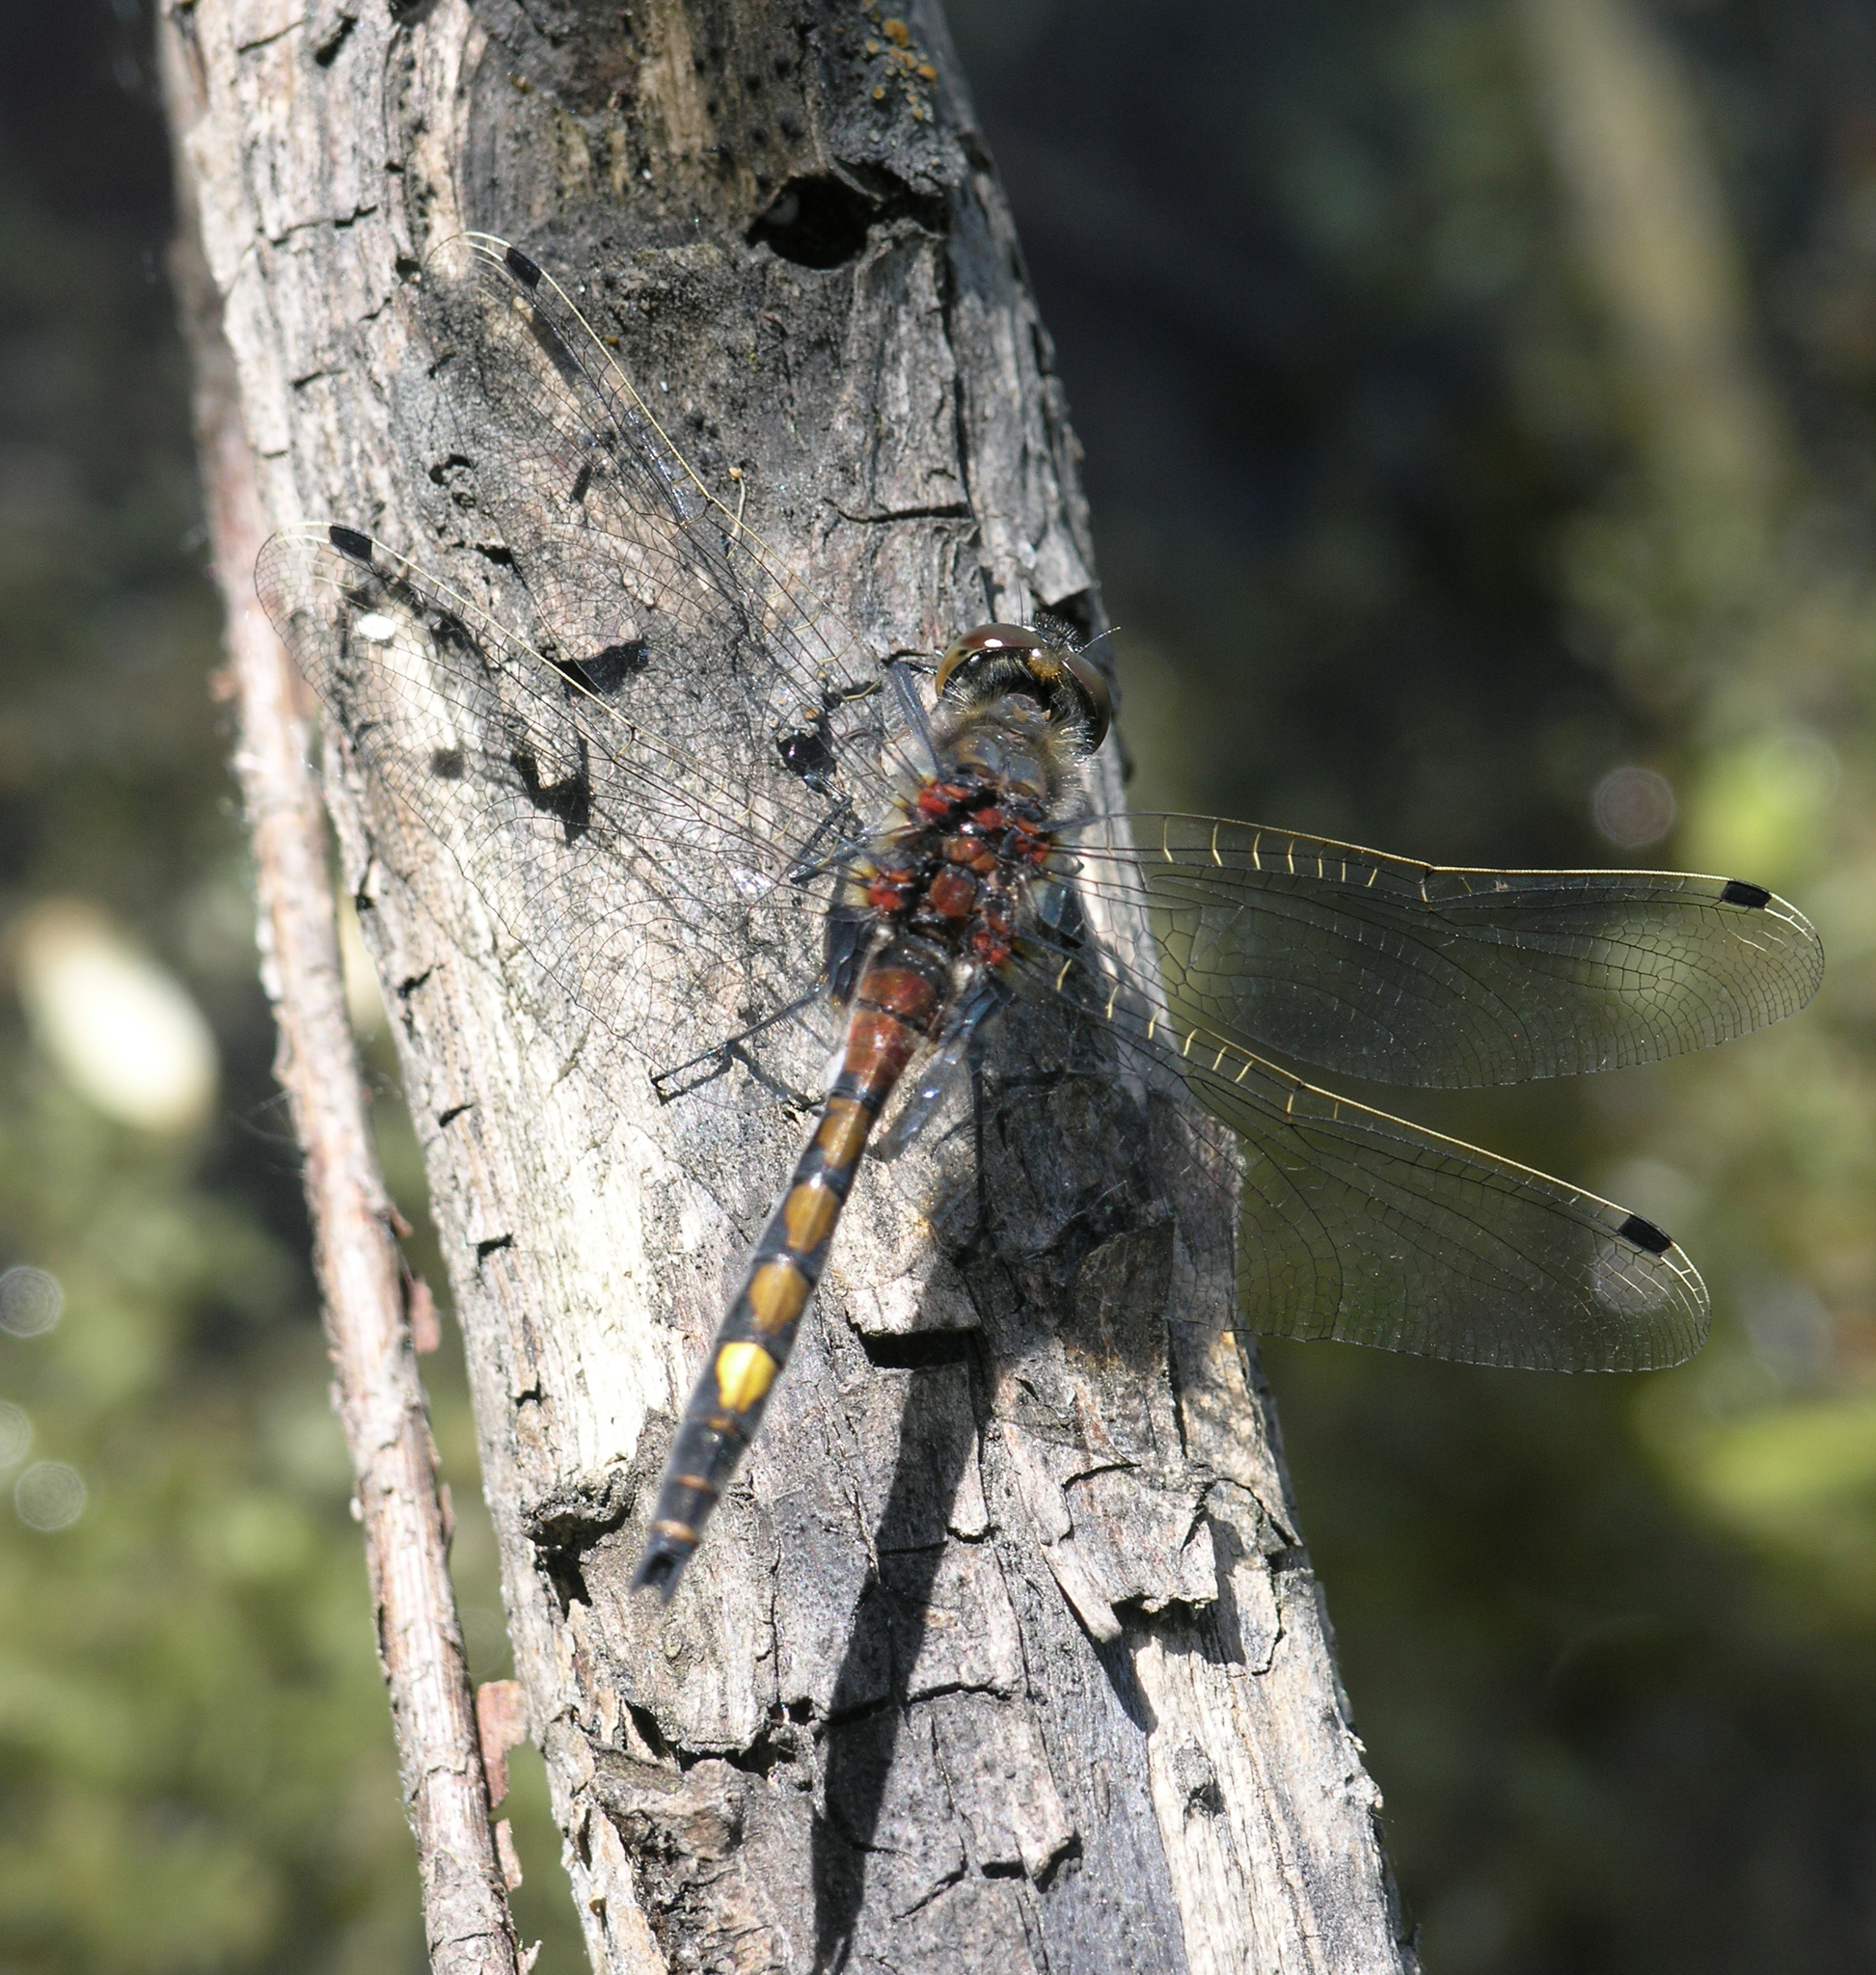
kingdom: Animalia
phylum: Arthropoda
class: Insecta
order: Odonata
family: Libellulidae
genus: Leucorrhinia
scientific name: Leucorrhinia pectoralis
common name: Yellow-spotted whiteface
